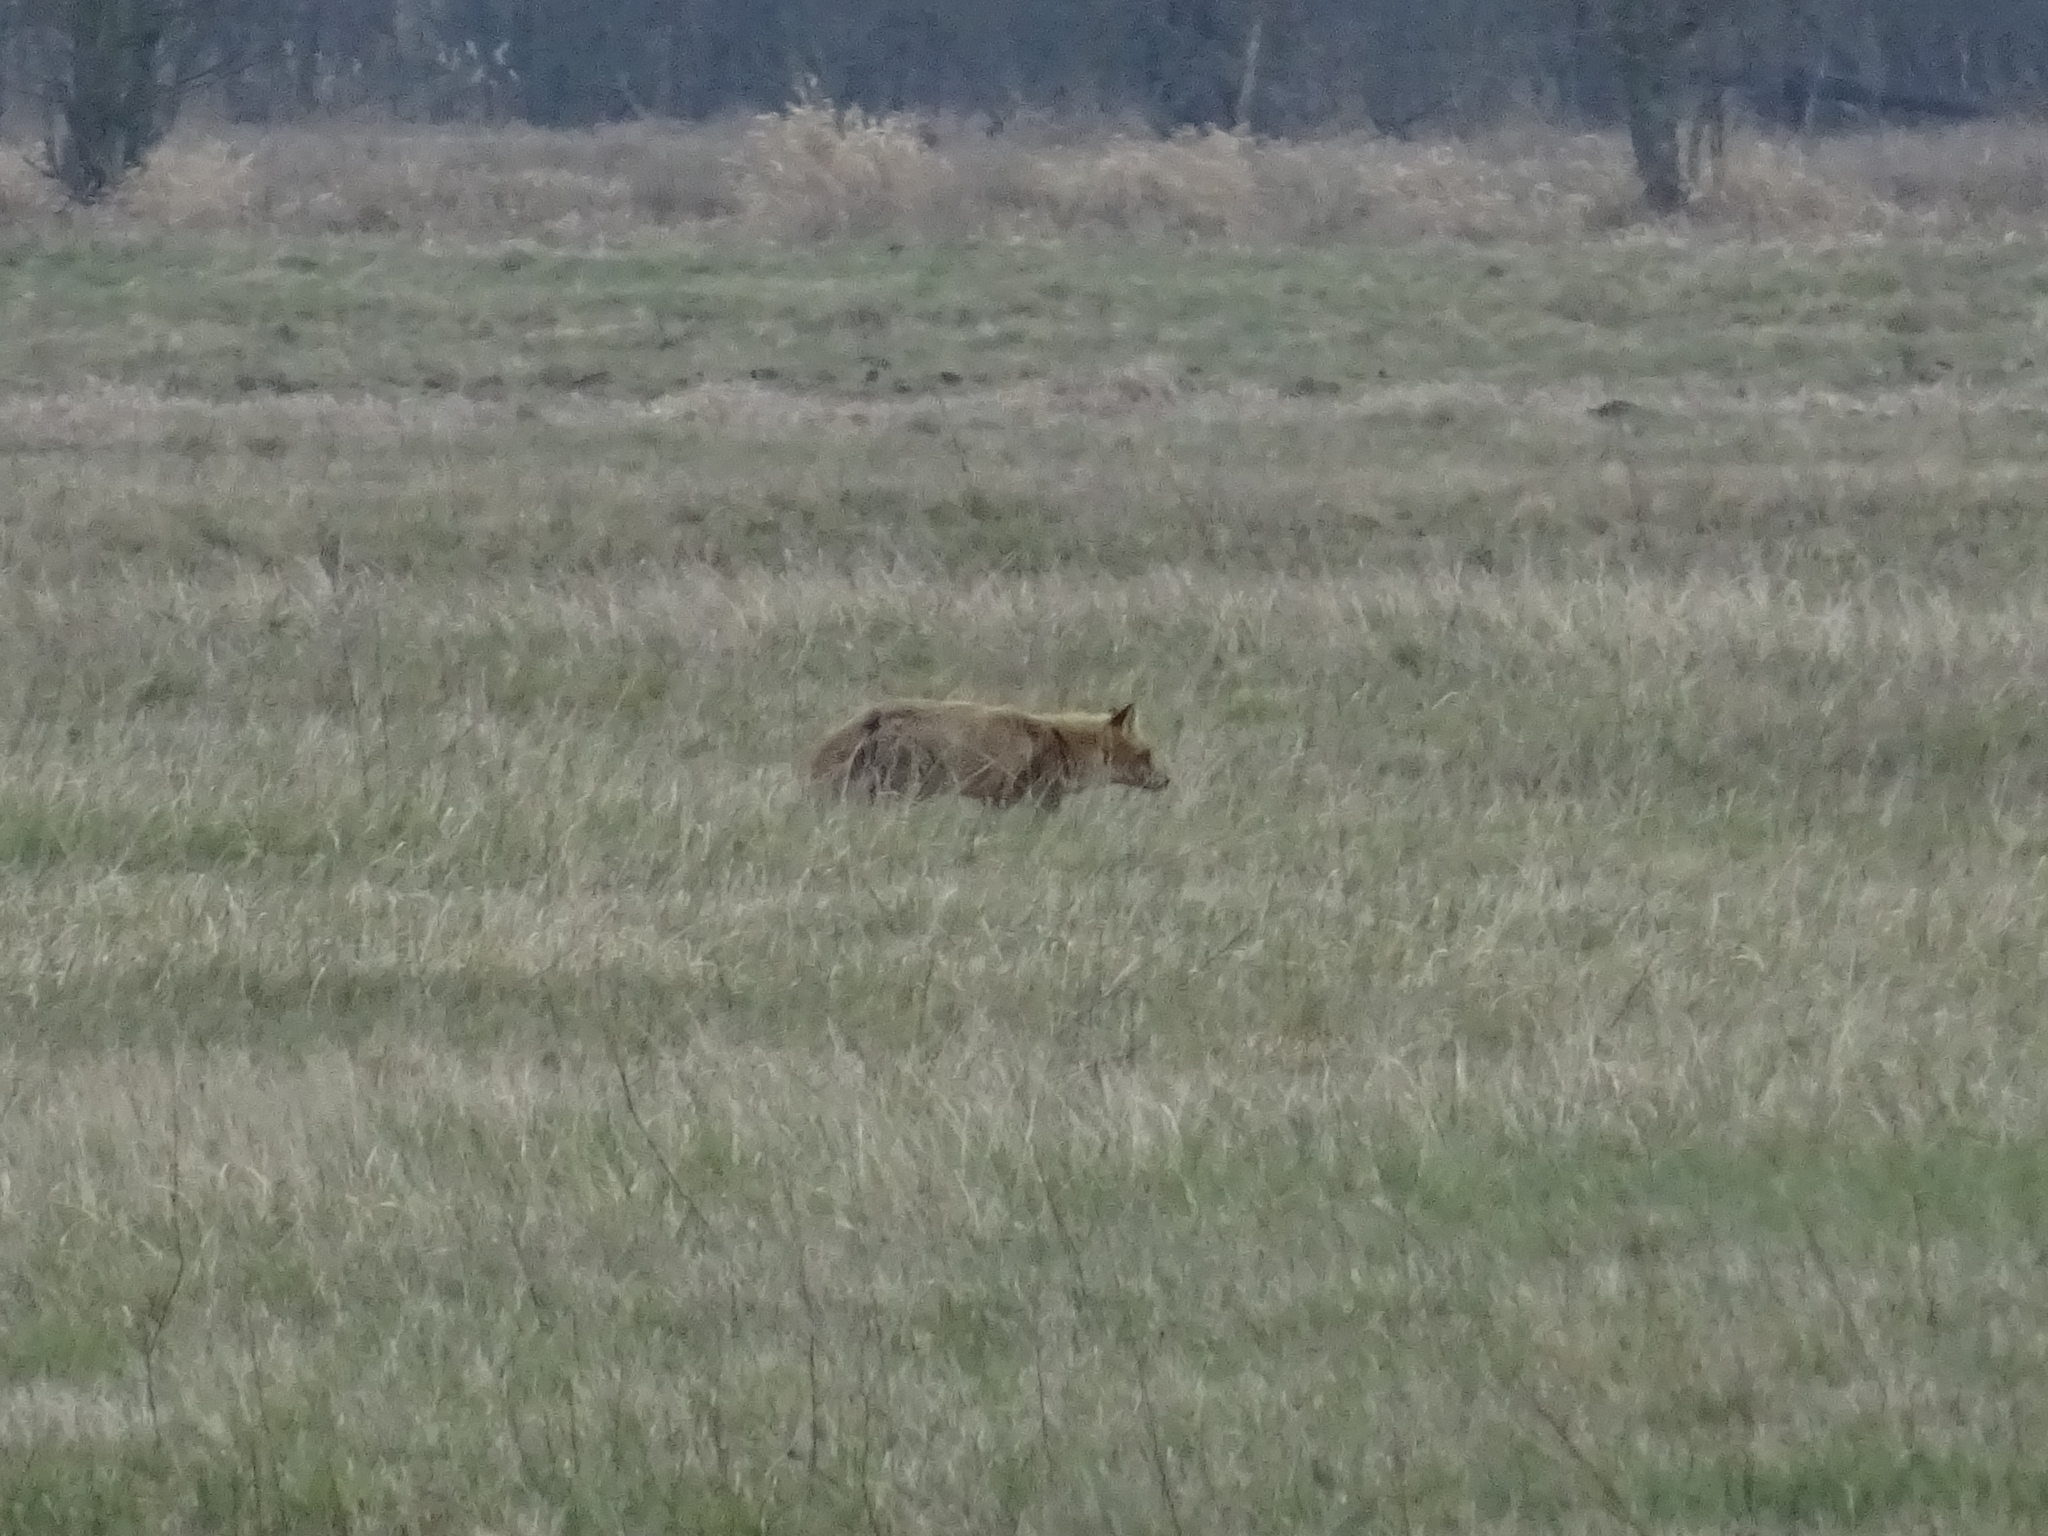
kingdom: Animalia
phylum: Chordata
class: Mammalia
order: Carnivora
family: Canidae
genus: Vulpes
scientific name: Vulpes vulpes
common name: Red fox
